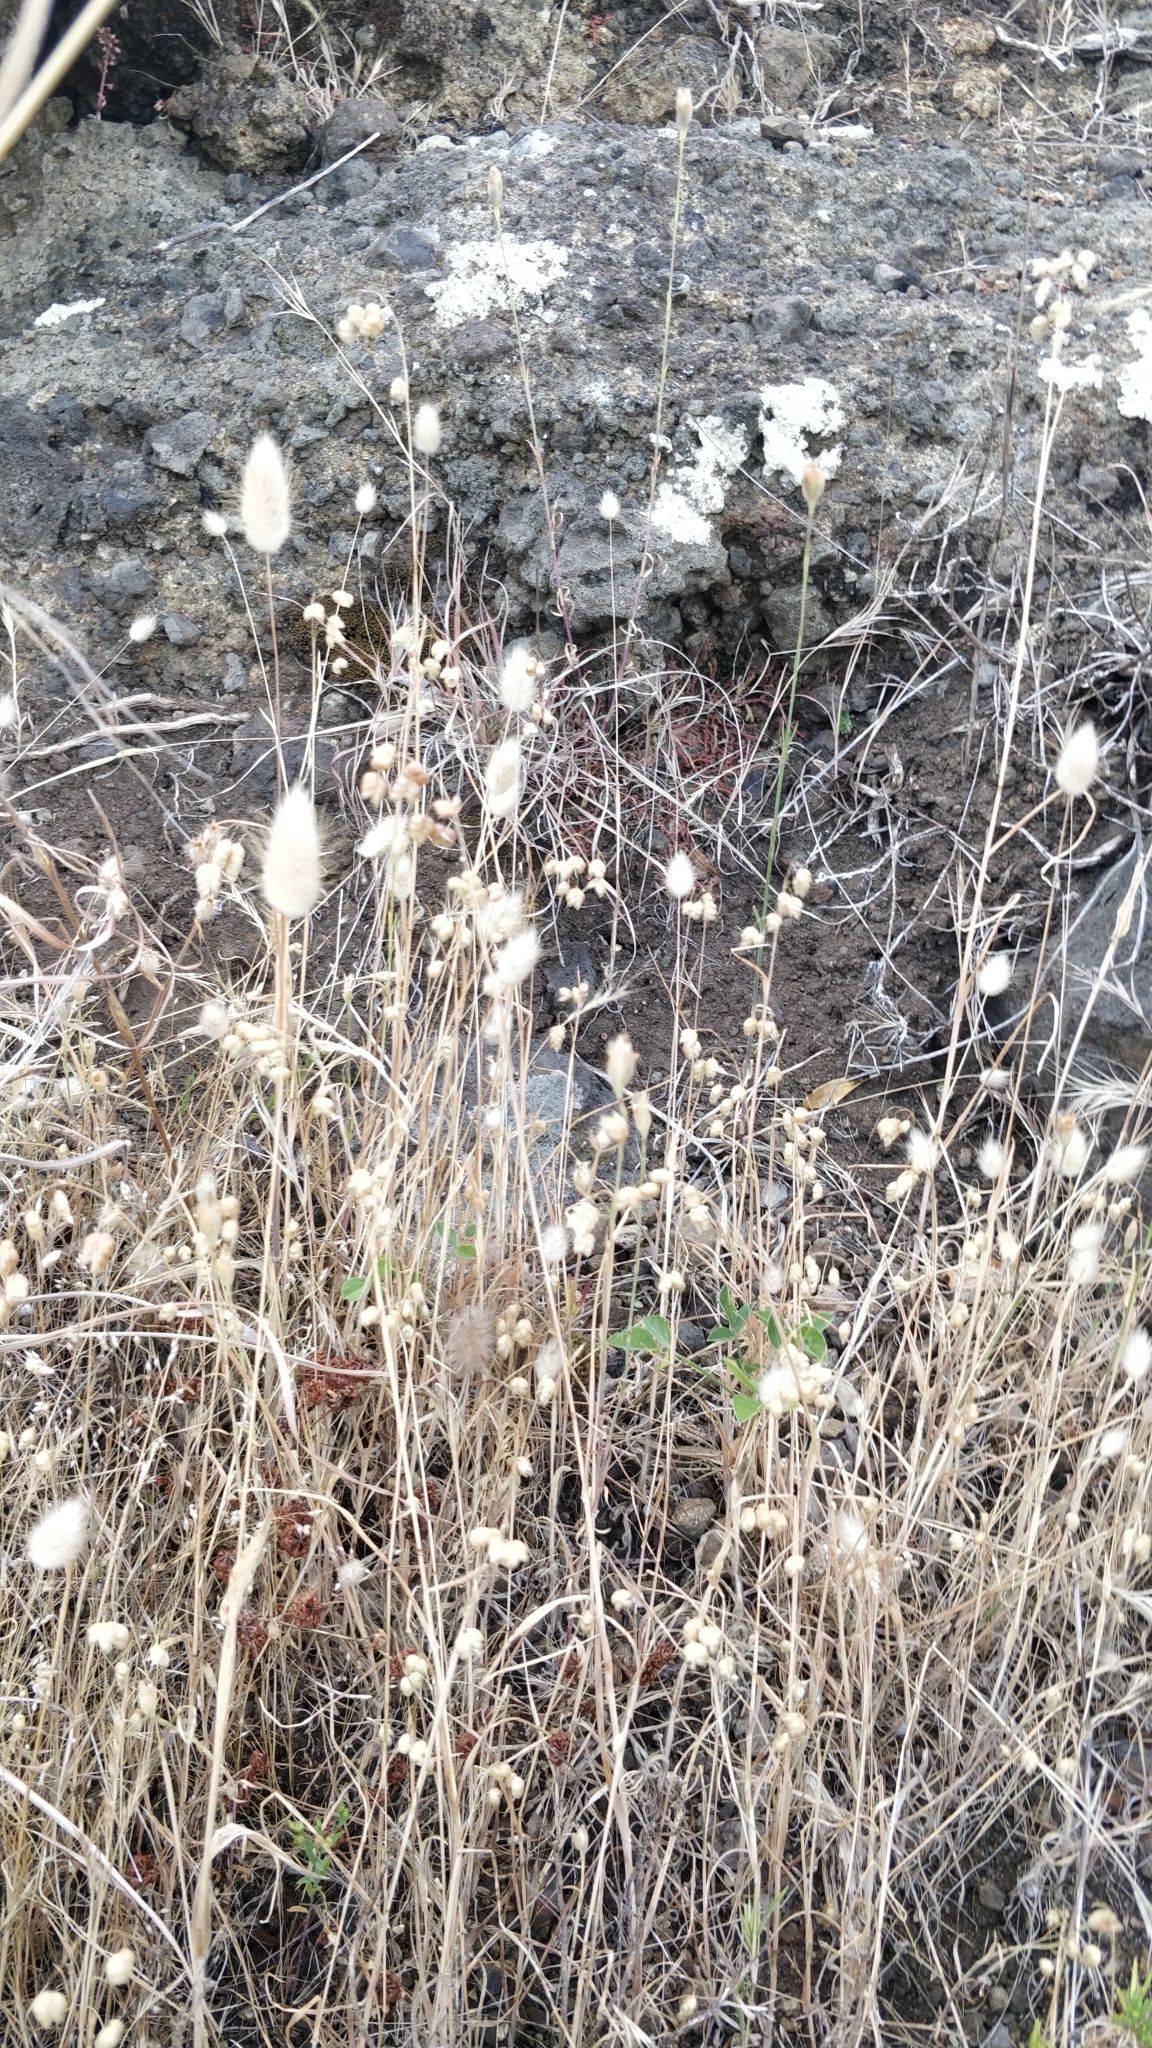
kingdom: Plantae
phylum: Tracheophyta
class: Liliopsida
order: Poales
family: Poaceae
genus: Lagurus
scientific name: Lagurus ovatus
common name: Hare's-tail
